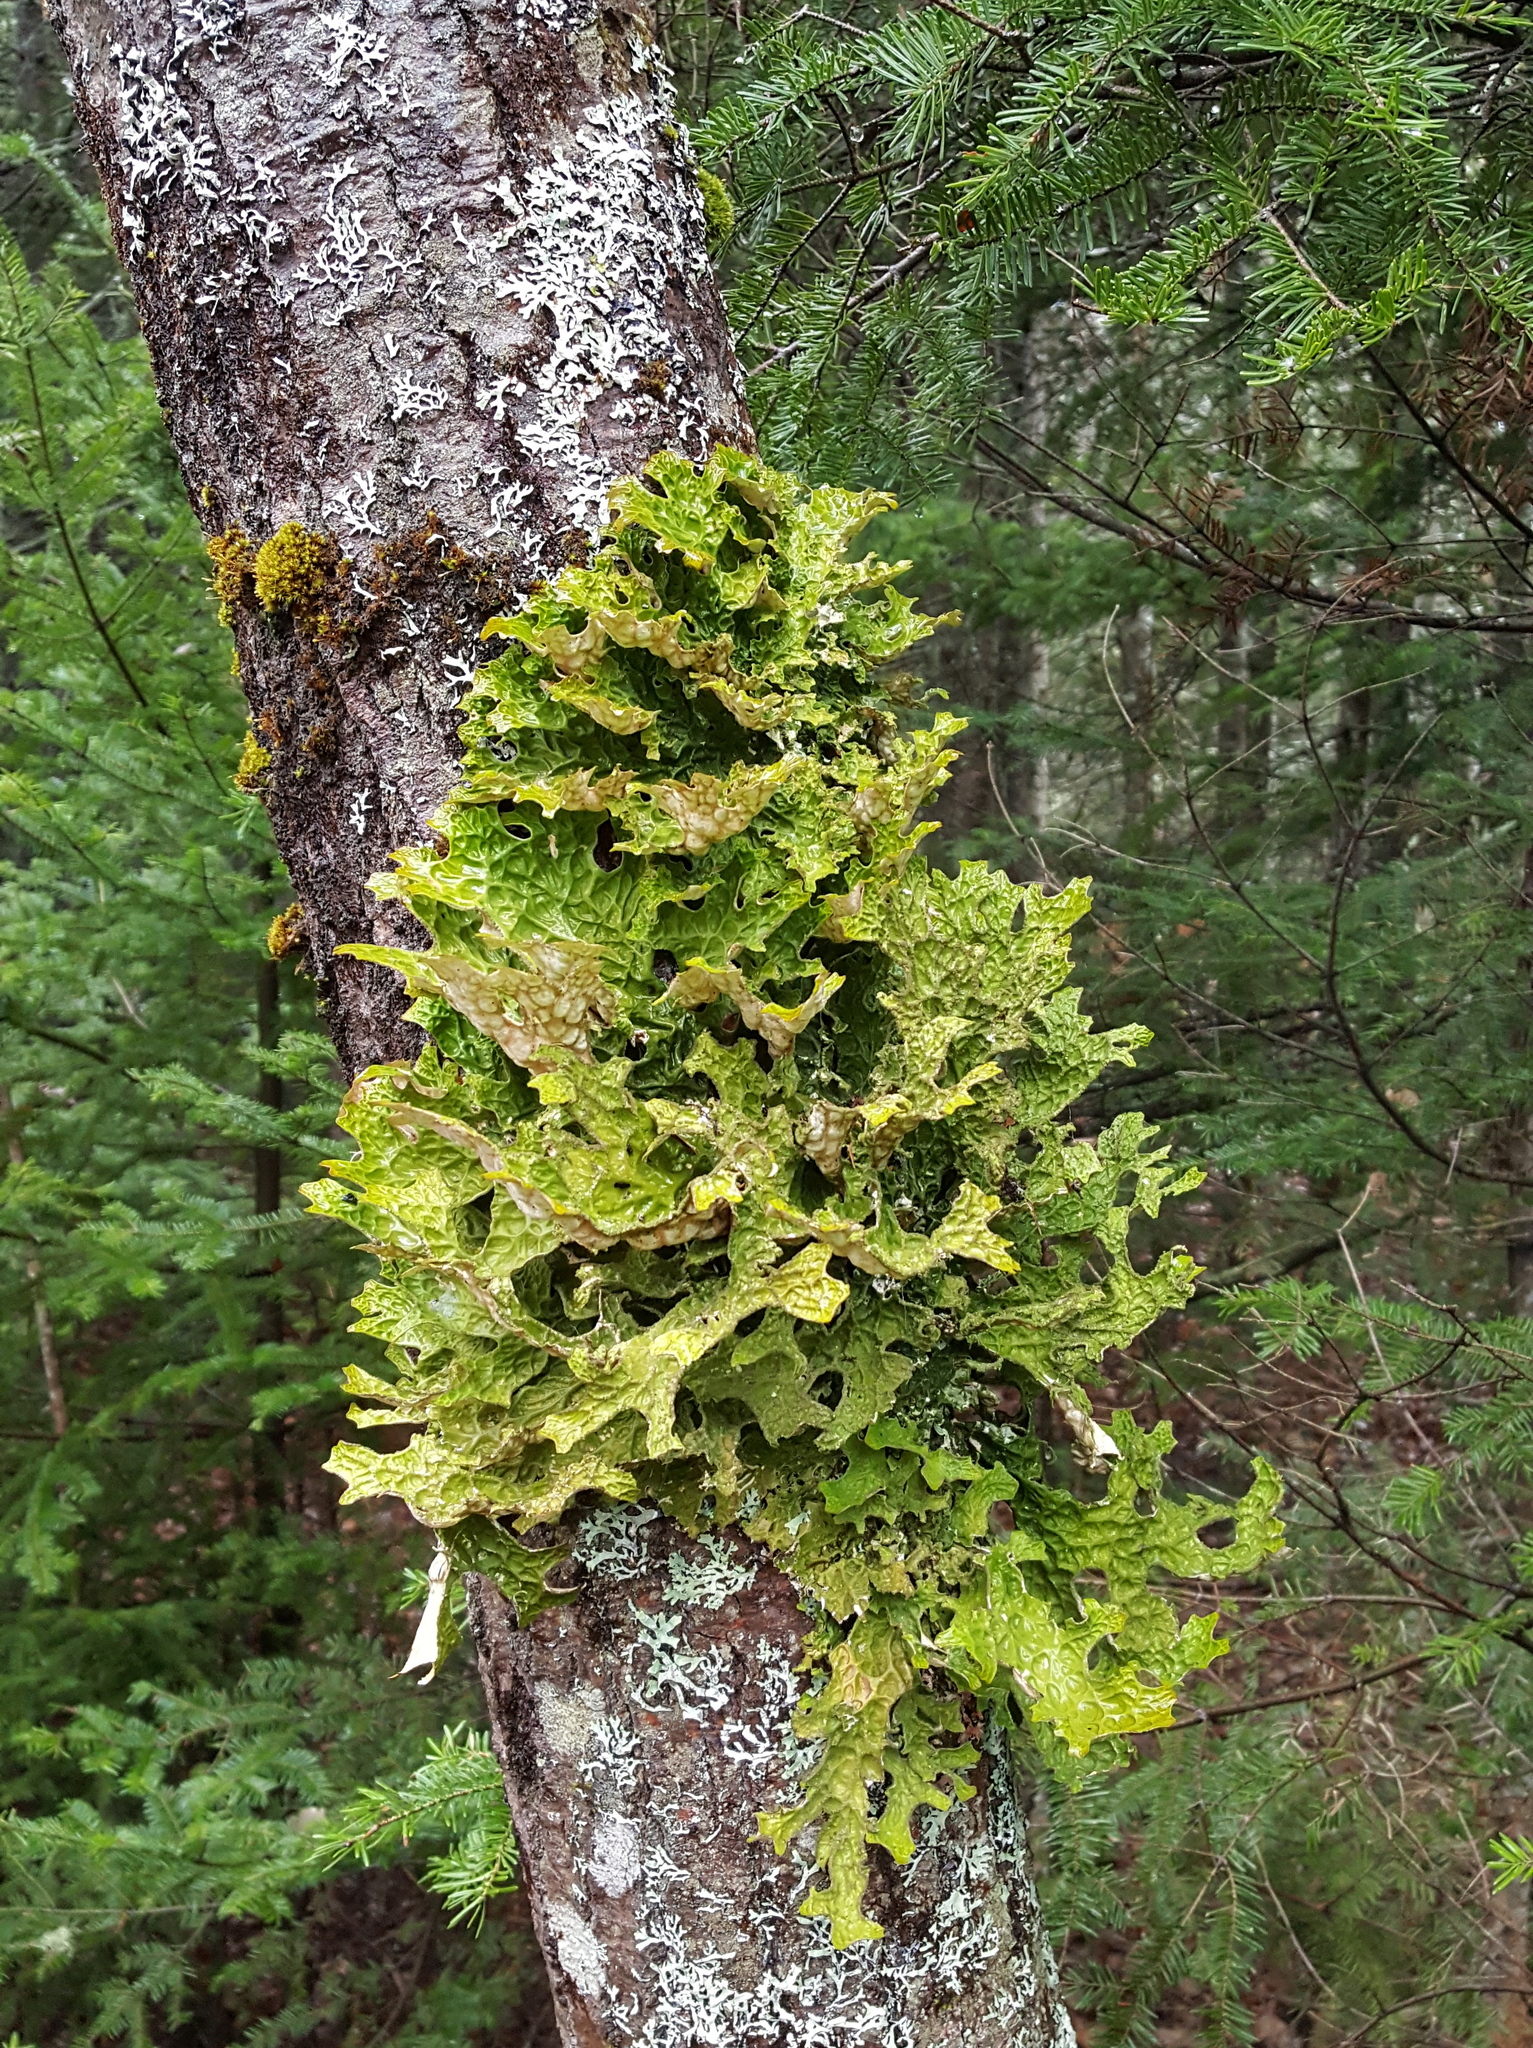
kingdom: Fungi
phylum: Ascomycota
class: Lecanoromycetes
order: Peltigerales
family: Lobariaceae
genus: Lobaria
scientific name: Lobaria pulmonaria
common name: Lungwort
